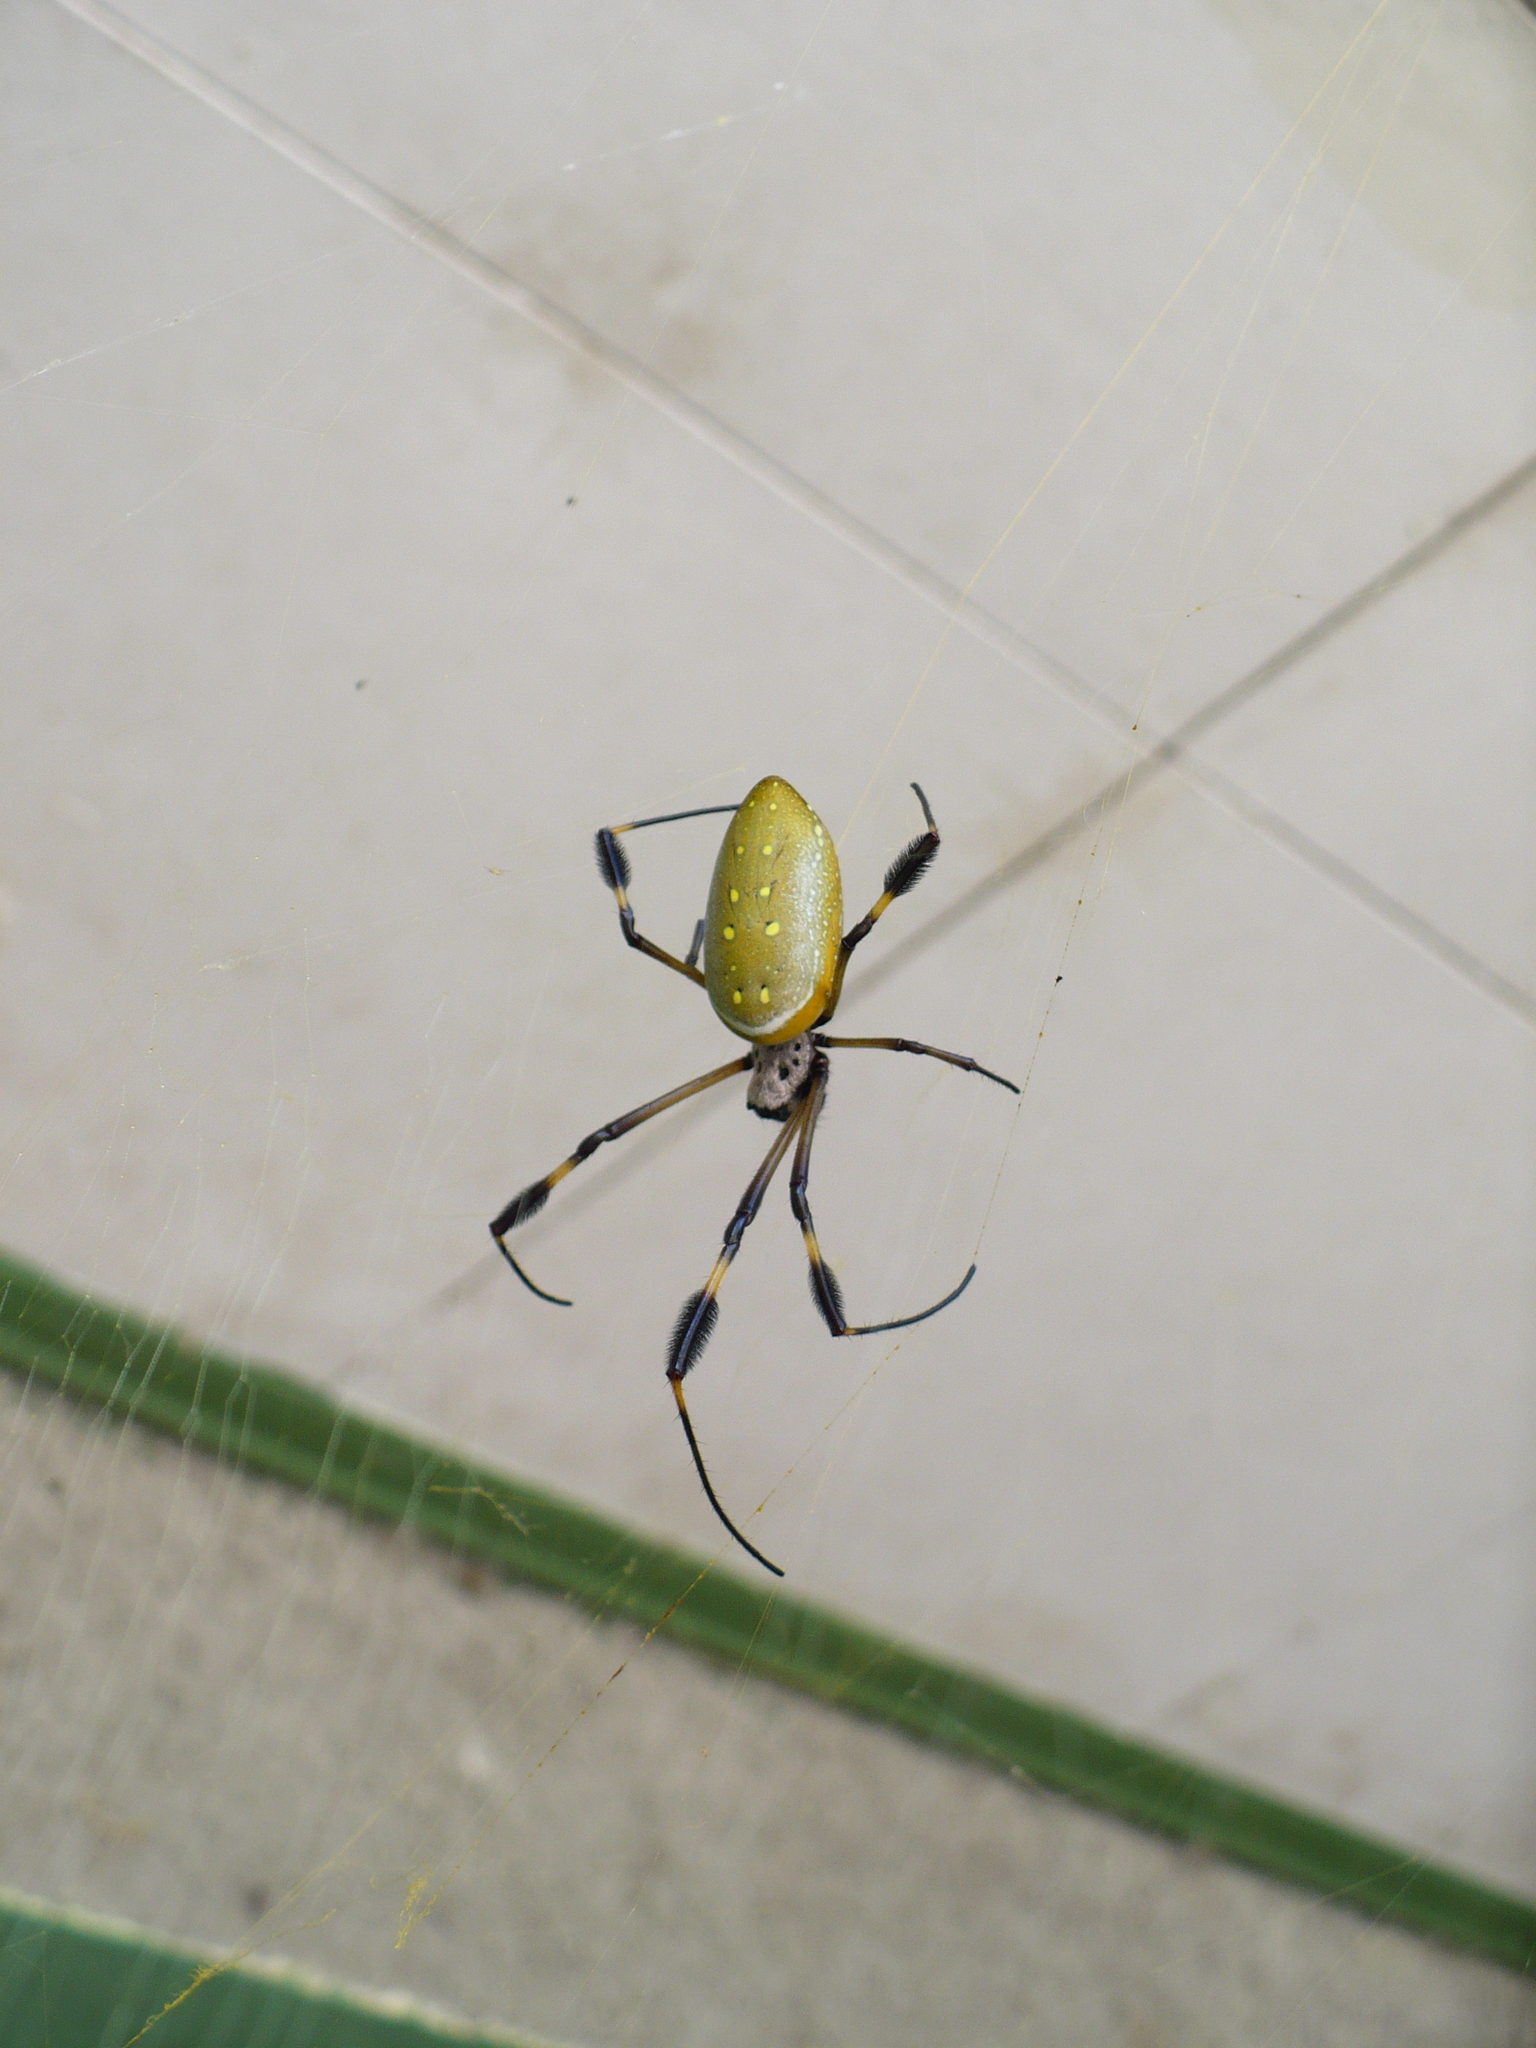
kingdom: Animalia
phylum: Arthropoda
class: Arachnida
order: Araneae
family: Araneidae
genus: Trichonephila
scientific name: Trichonephila clavipes
